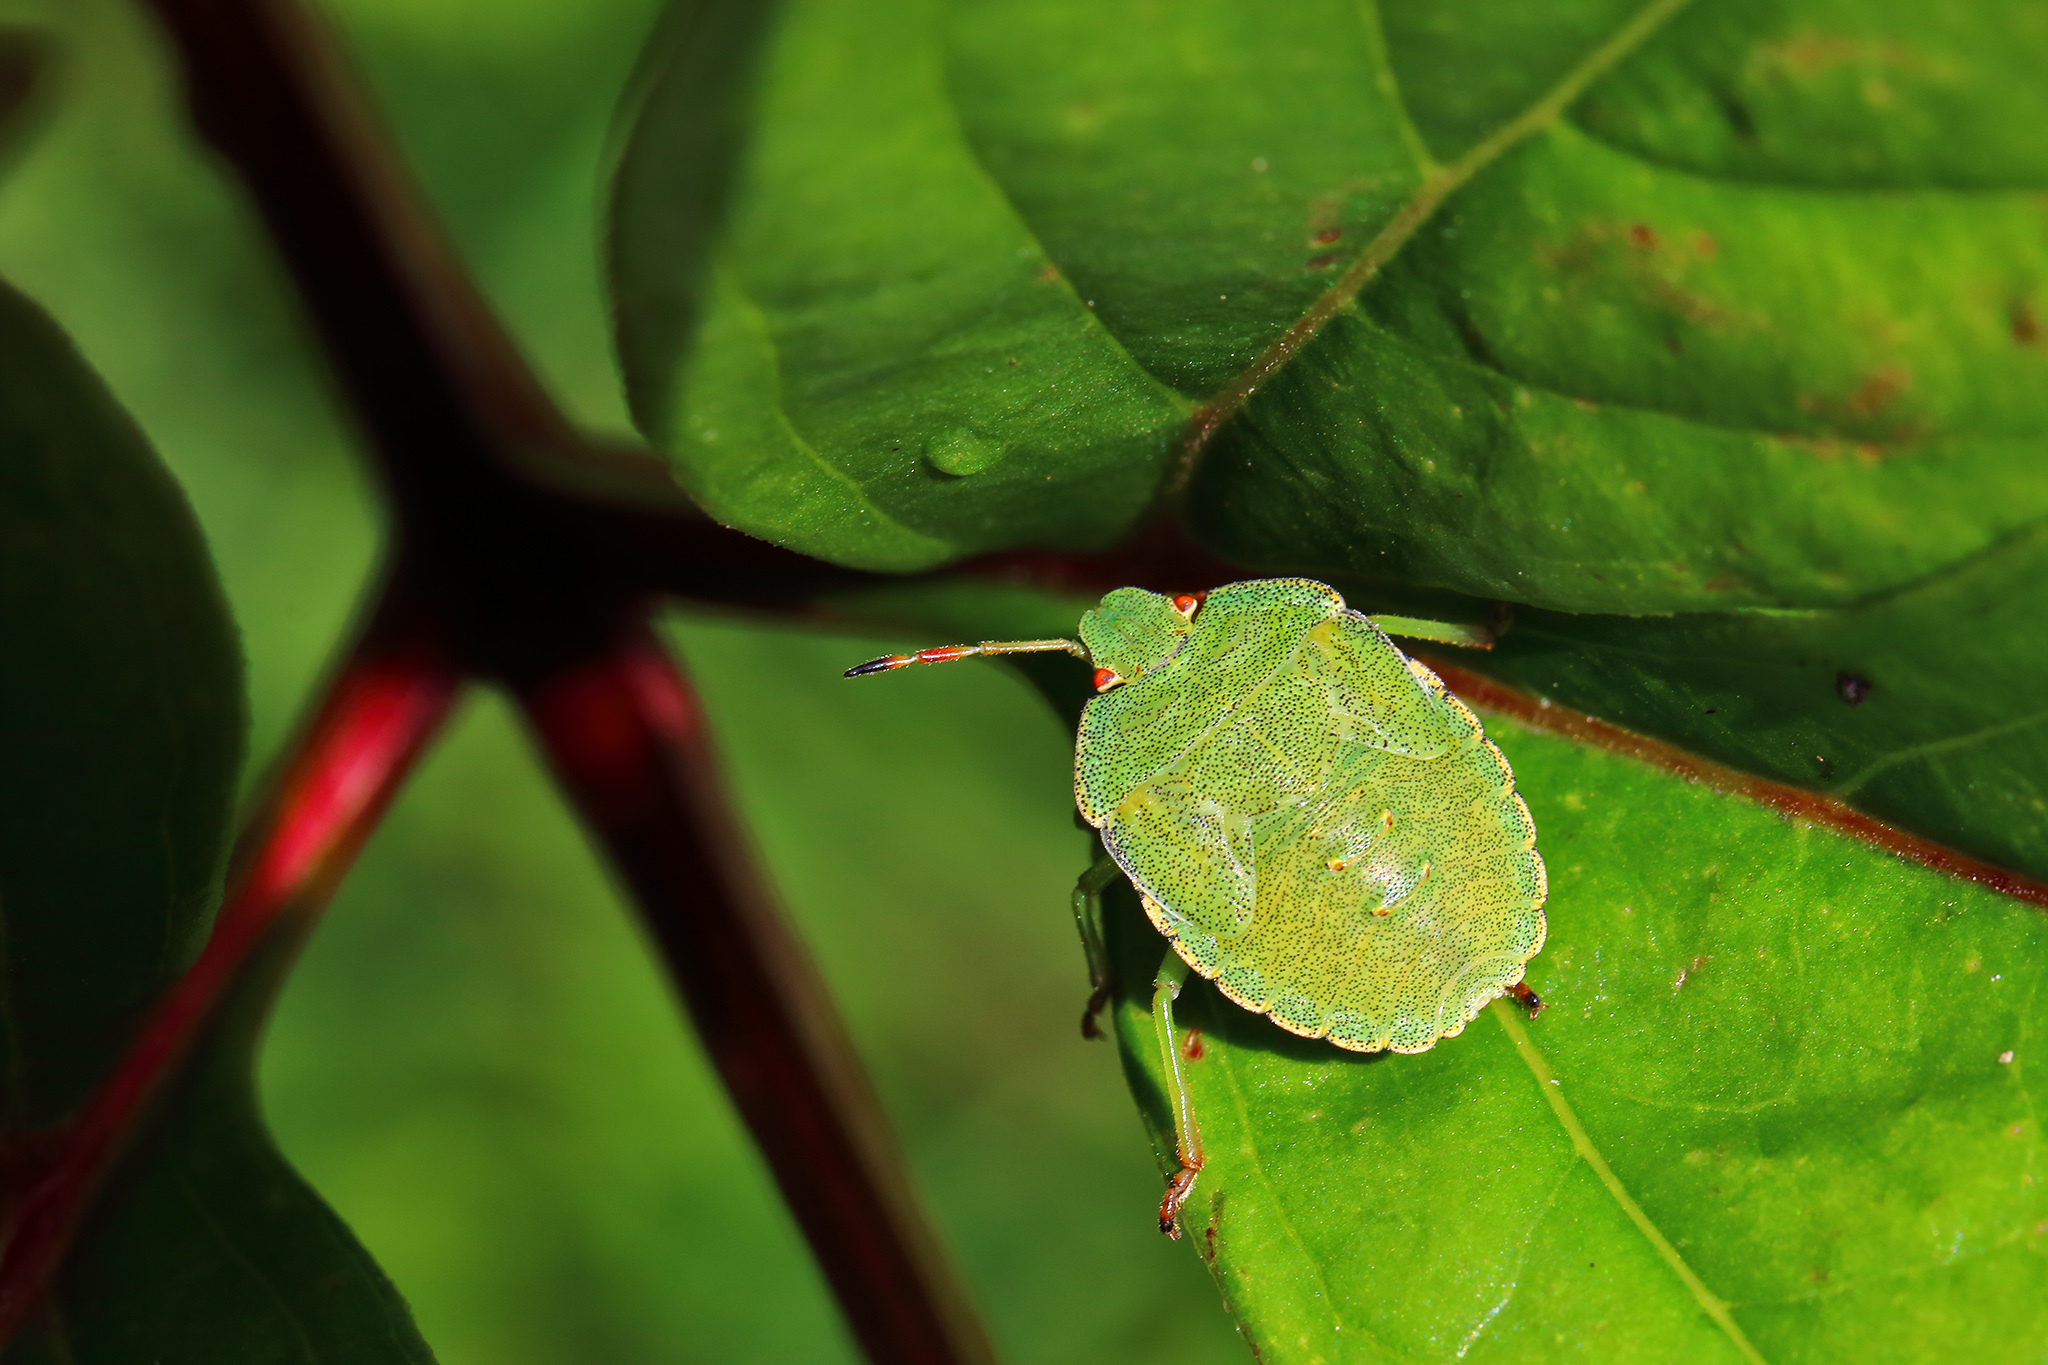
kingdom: Animalia
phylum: Arthropoda
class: Insecta
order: Hemiptera
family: Pentatomidae
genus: Palomena
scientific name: Palomena prasina
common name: Green shieldbug
